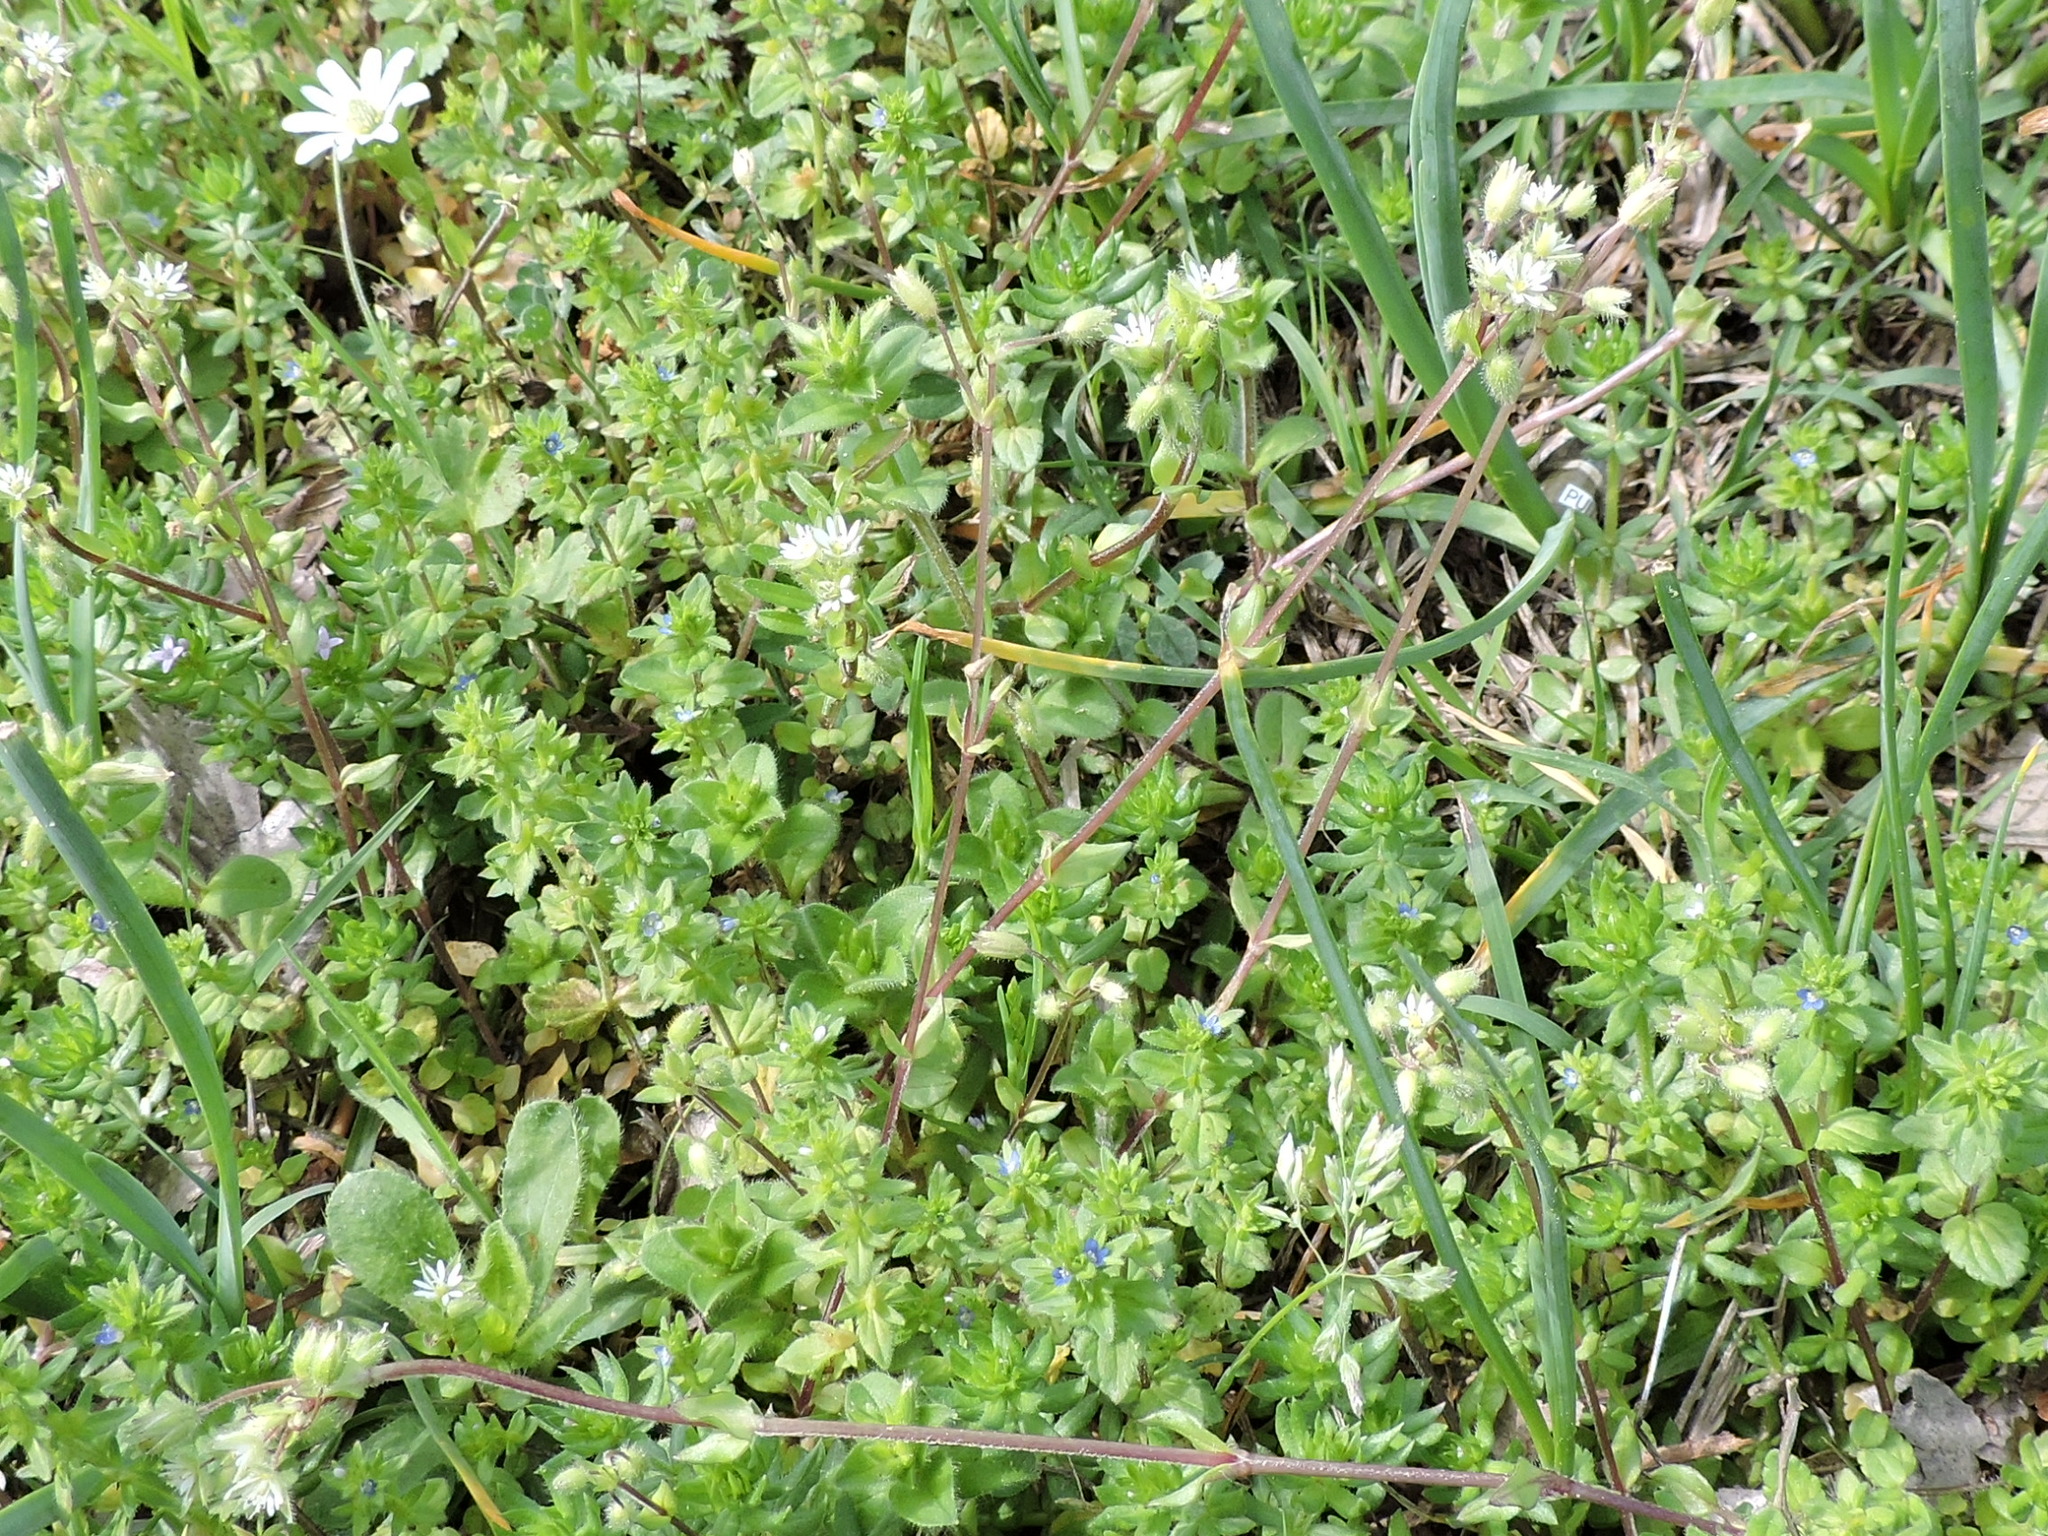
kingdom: Plantae
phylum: Tracheophyta
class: Magnoliopsida
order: Caryophyllales
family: Caryophyllaceae
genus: Stellaria
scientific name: Stellaria media
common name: Common chickweed
